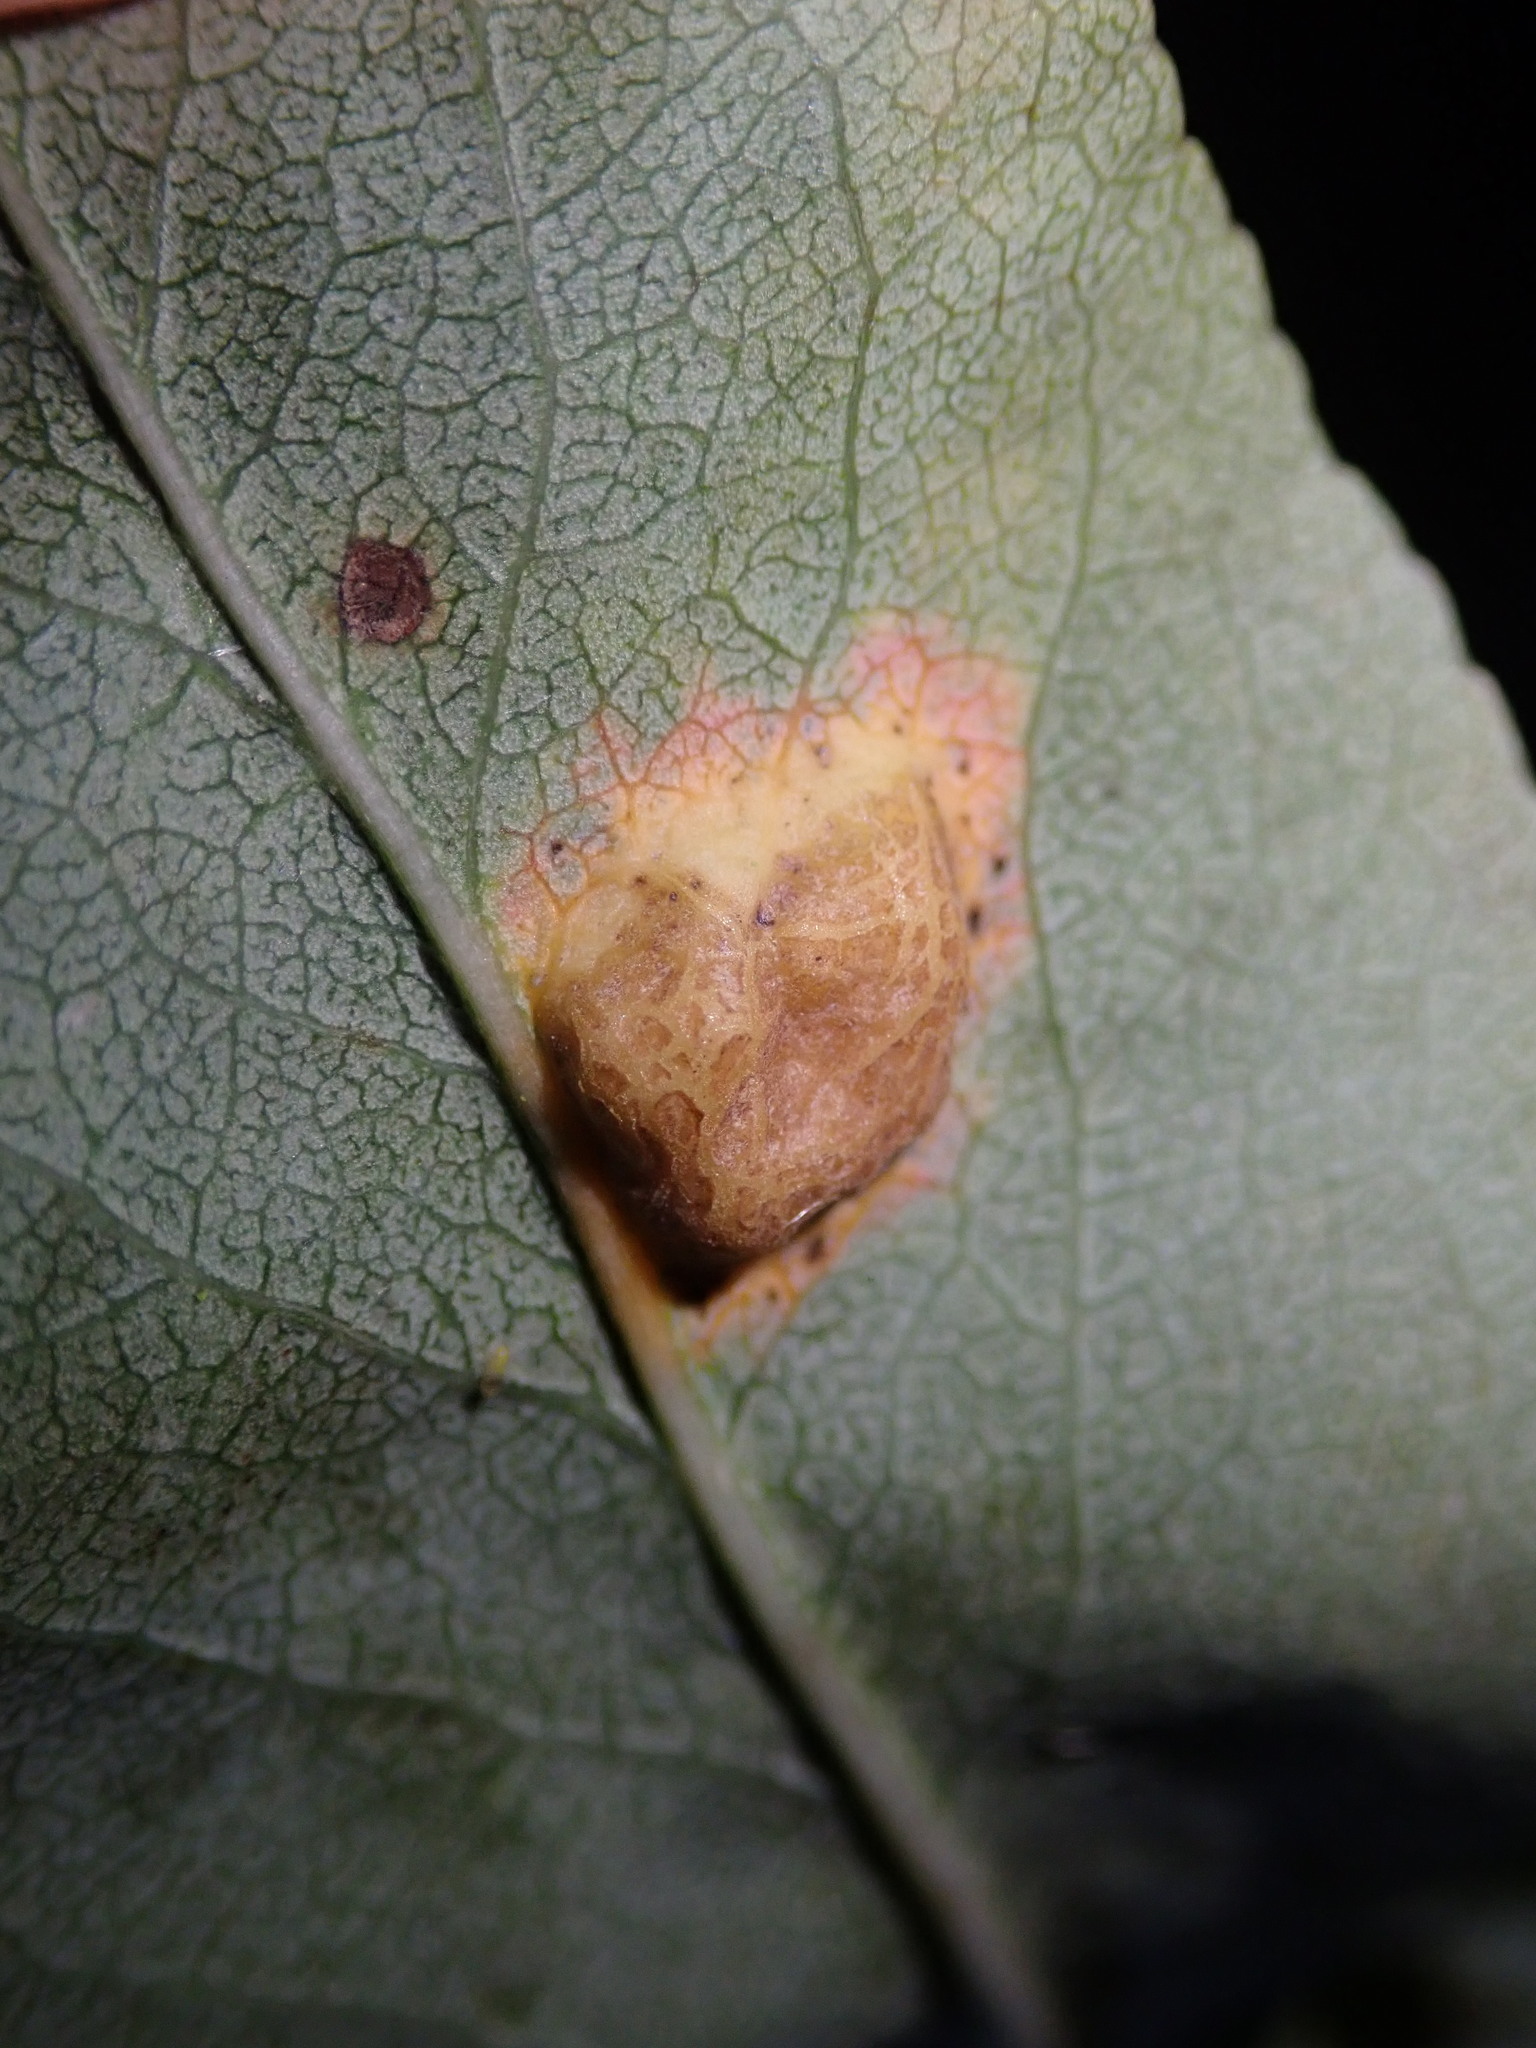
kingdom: Fungi
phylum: Basidiomycota
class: Pucciniomycetes
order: Pucciniales
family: Gymnosporangiaceae
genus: Gymnosporangium
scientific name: Gymnosporangium sabinae
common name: Pear trellis rust fungus
